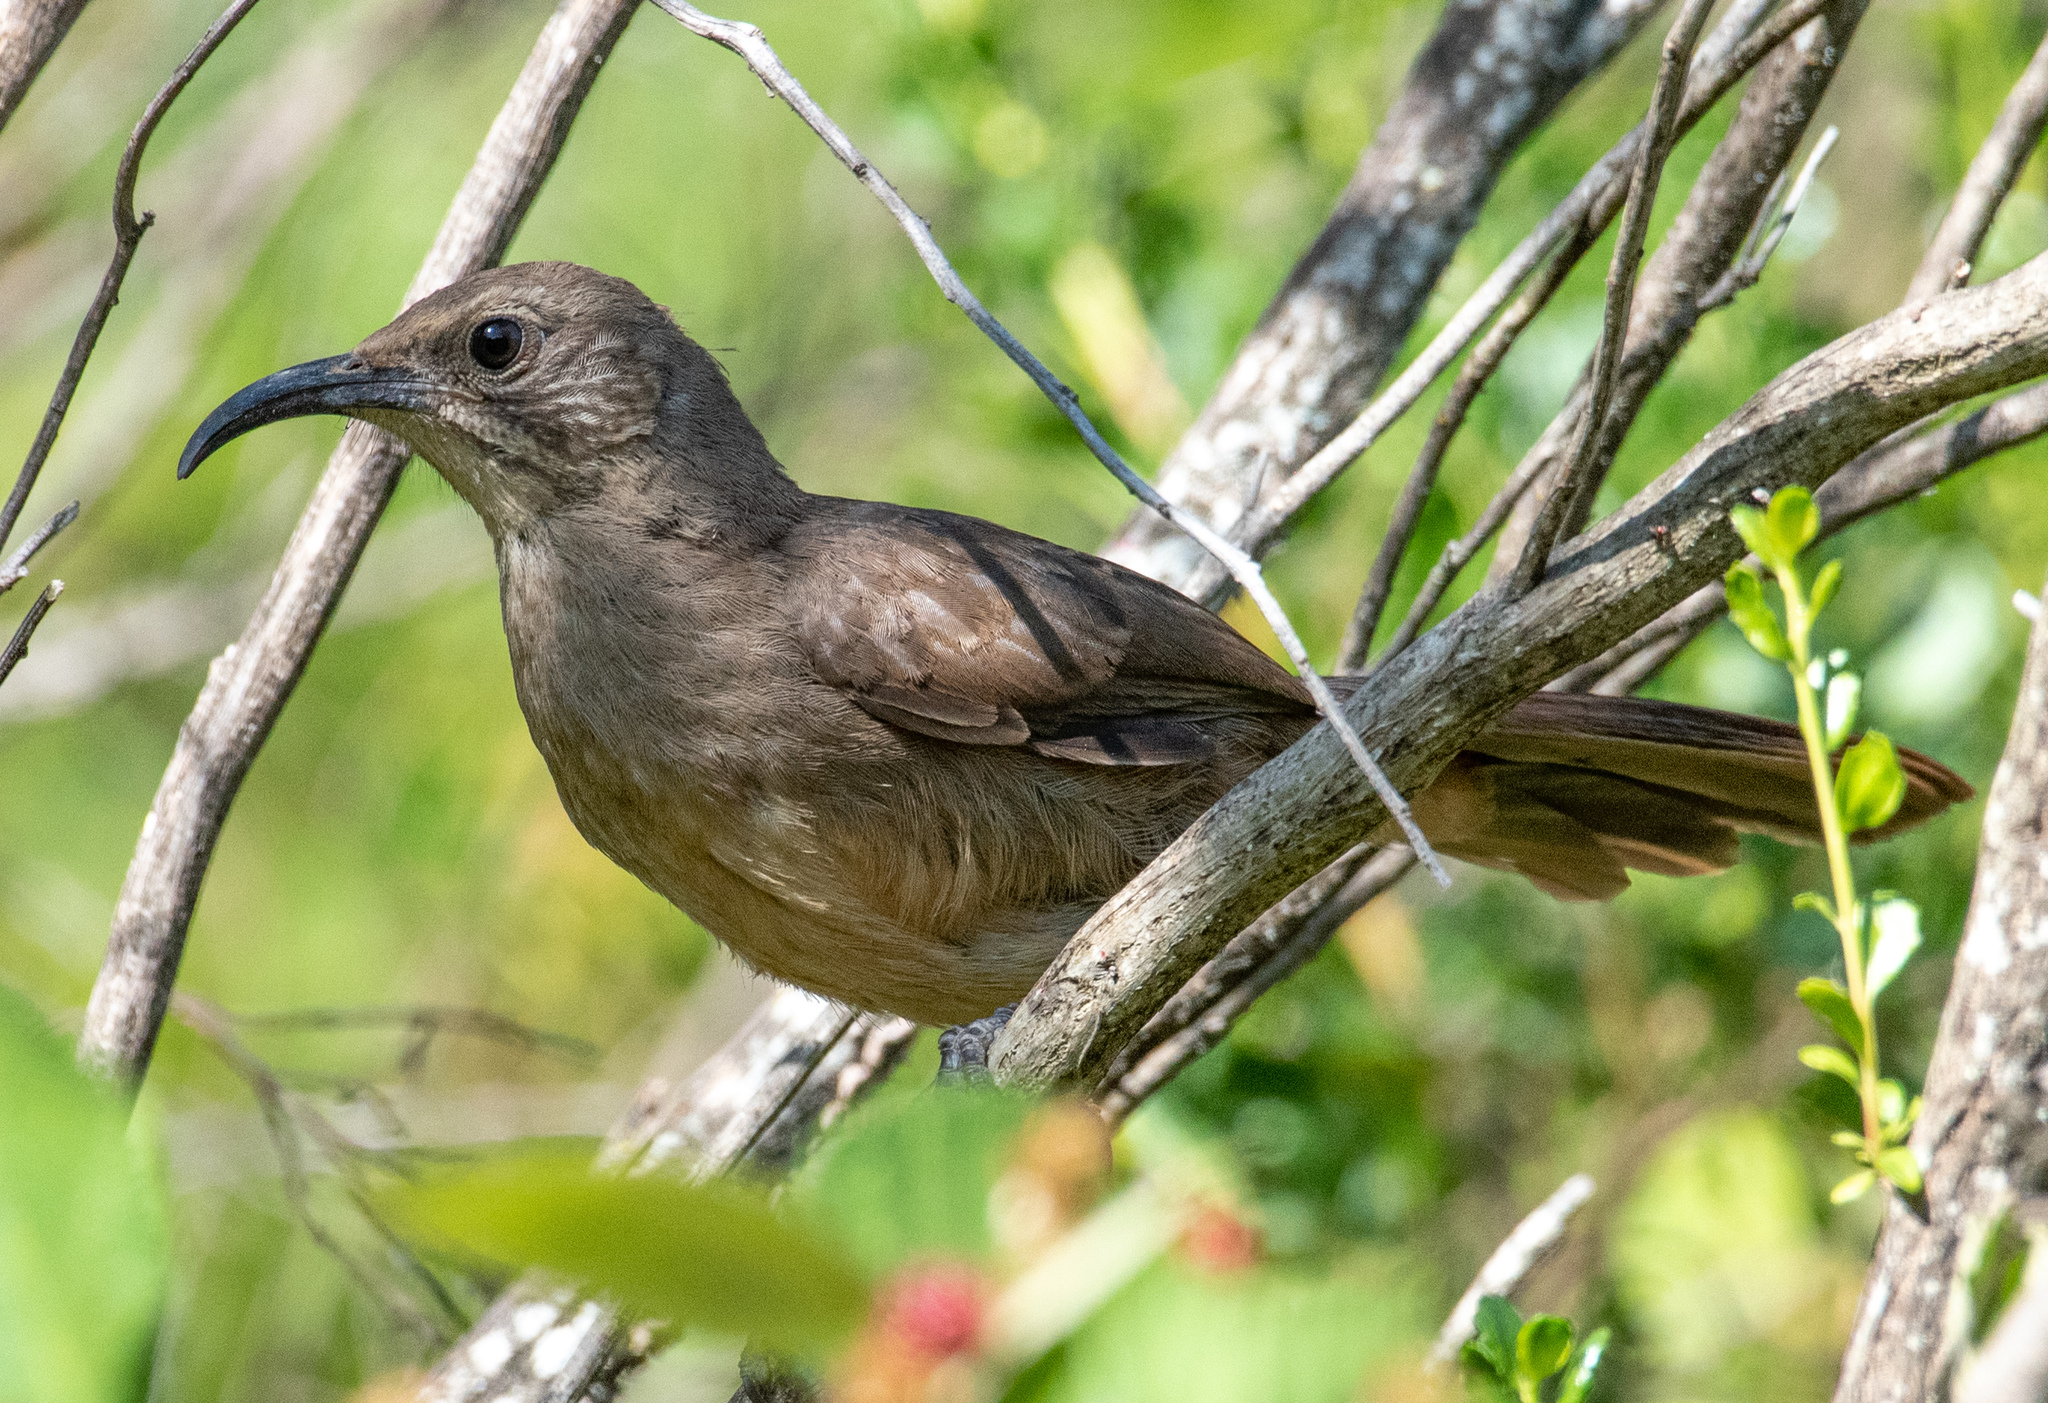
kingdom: Animalia
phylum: Chordata
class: Aves
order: Passeriformes
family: Mimidae
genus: Toxostoma
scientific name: Toxostoma redivivum
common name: California thrasher
